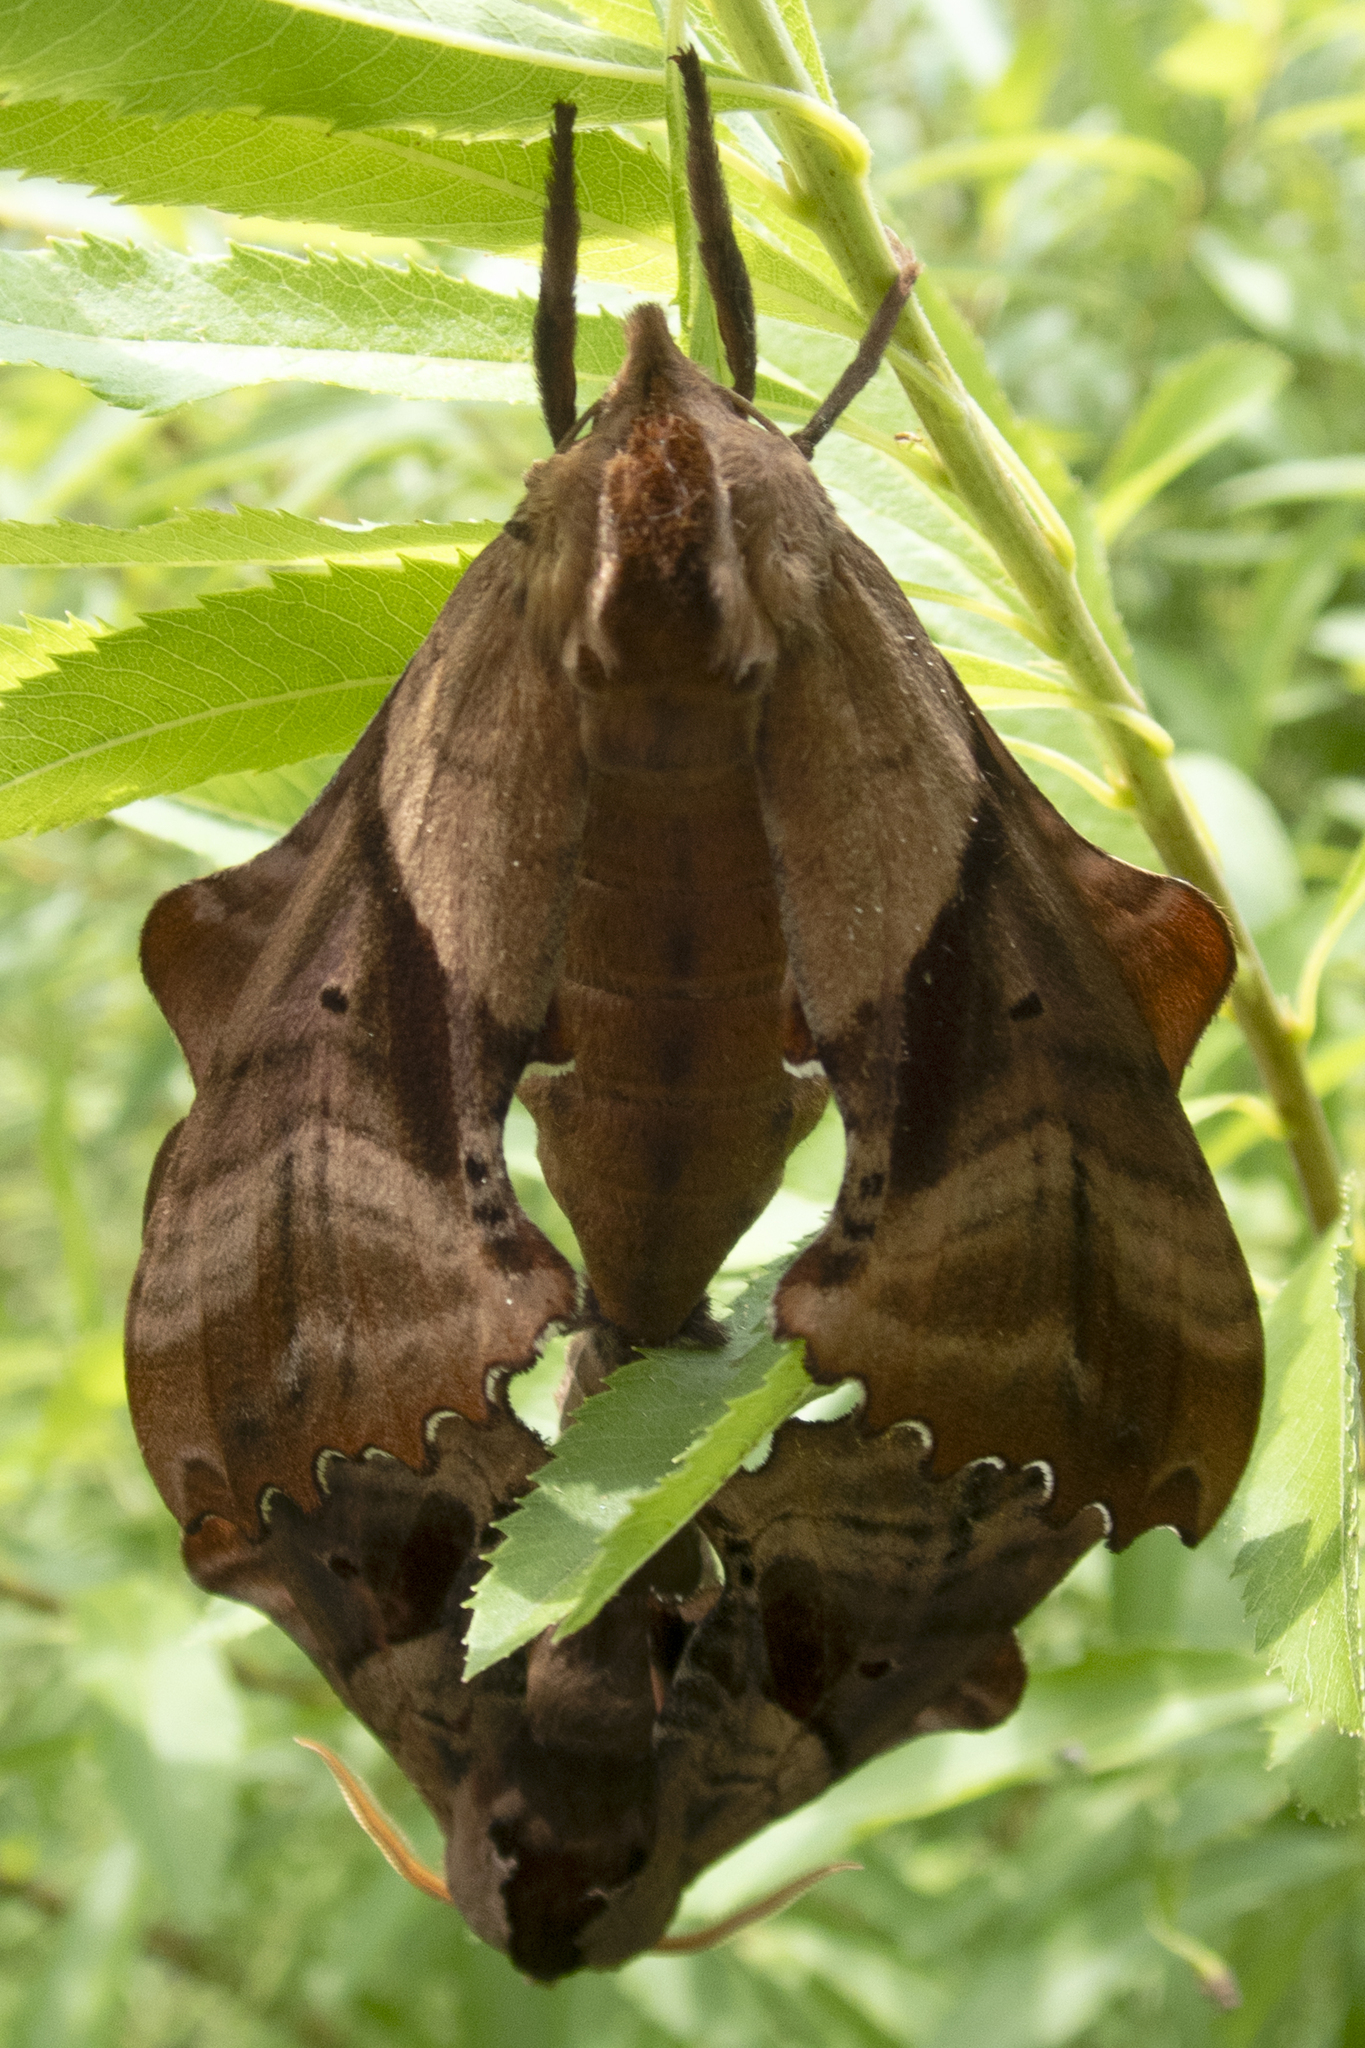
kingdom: Animalia
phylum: Arthropoda
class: Insecta
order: Lepidoptera
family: Sphingidae
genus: Paonias
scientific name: Paonias excaecata
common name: Blind-eyed sphinx
